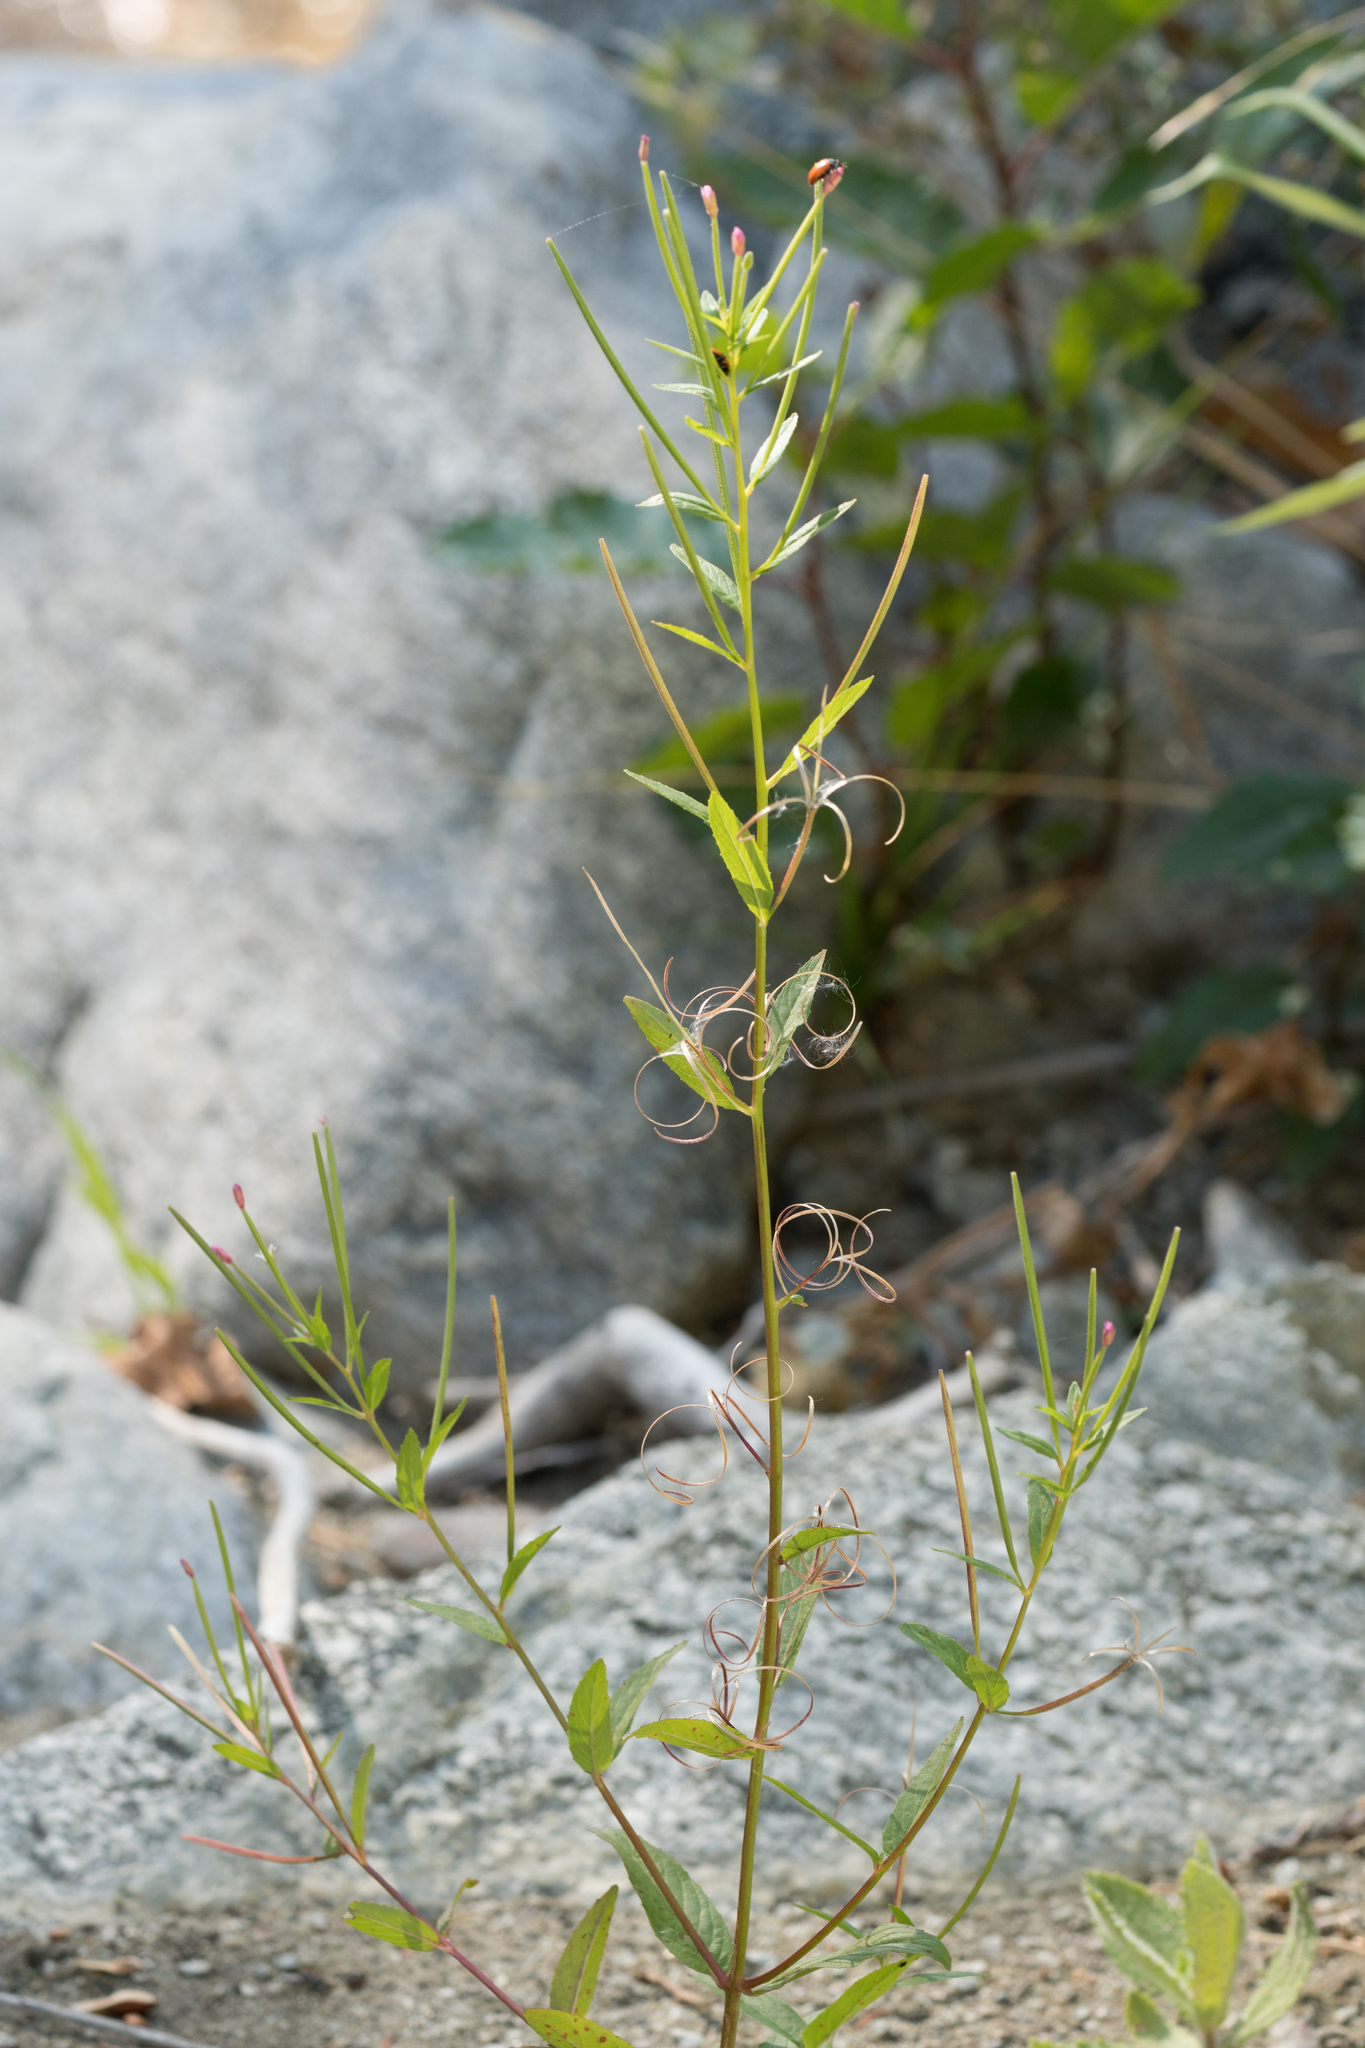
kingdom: Plantae
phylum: Tracheophyta
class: Magnoliopsida
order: Myrtales
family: Onagraceae
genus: Epilobium
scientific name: Epilobium ciliatum
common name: American willowherb
